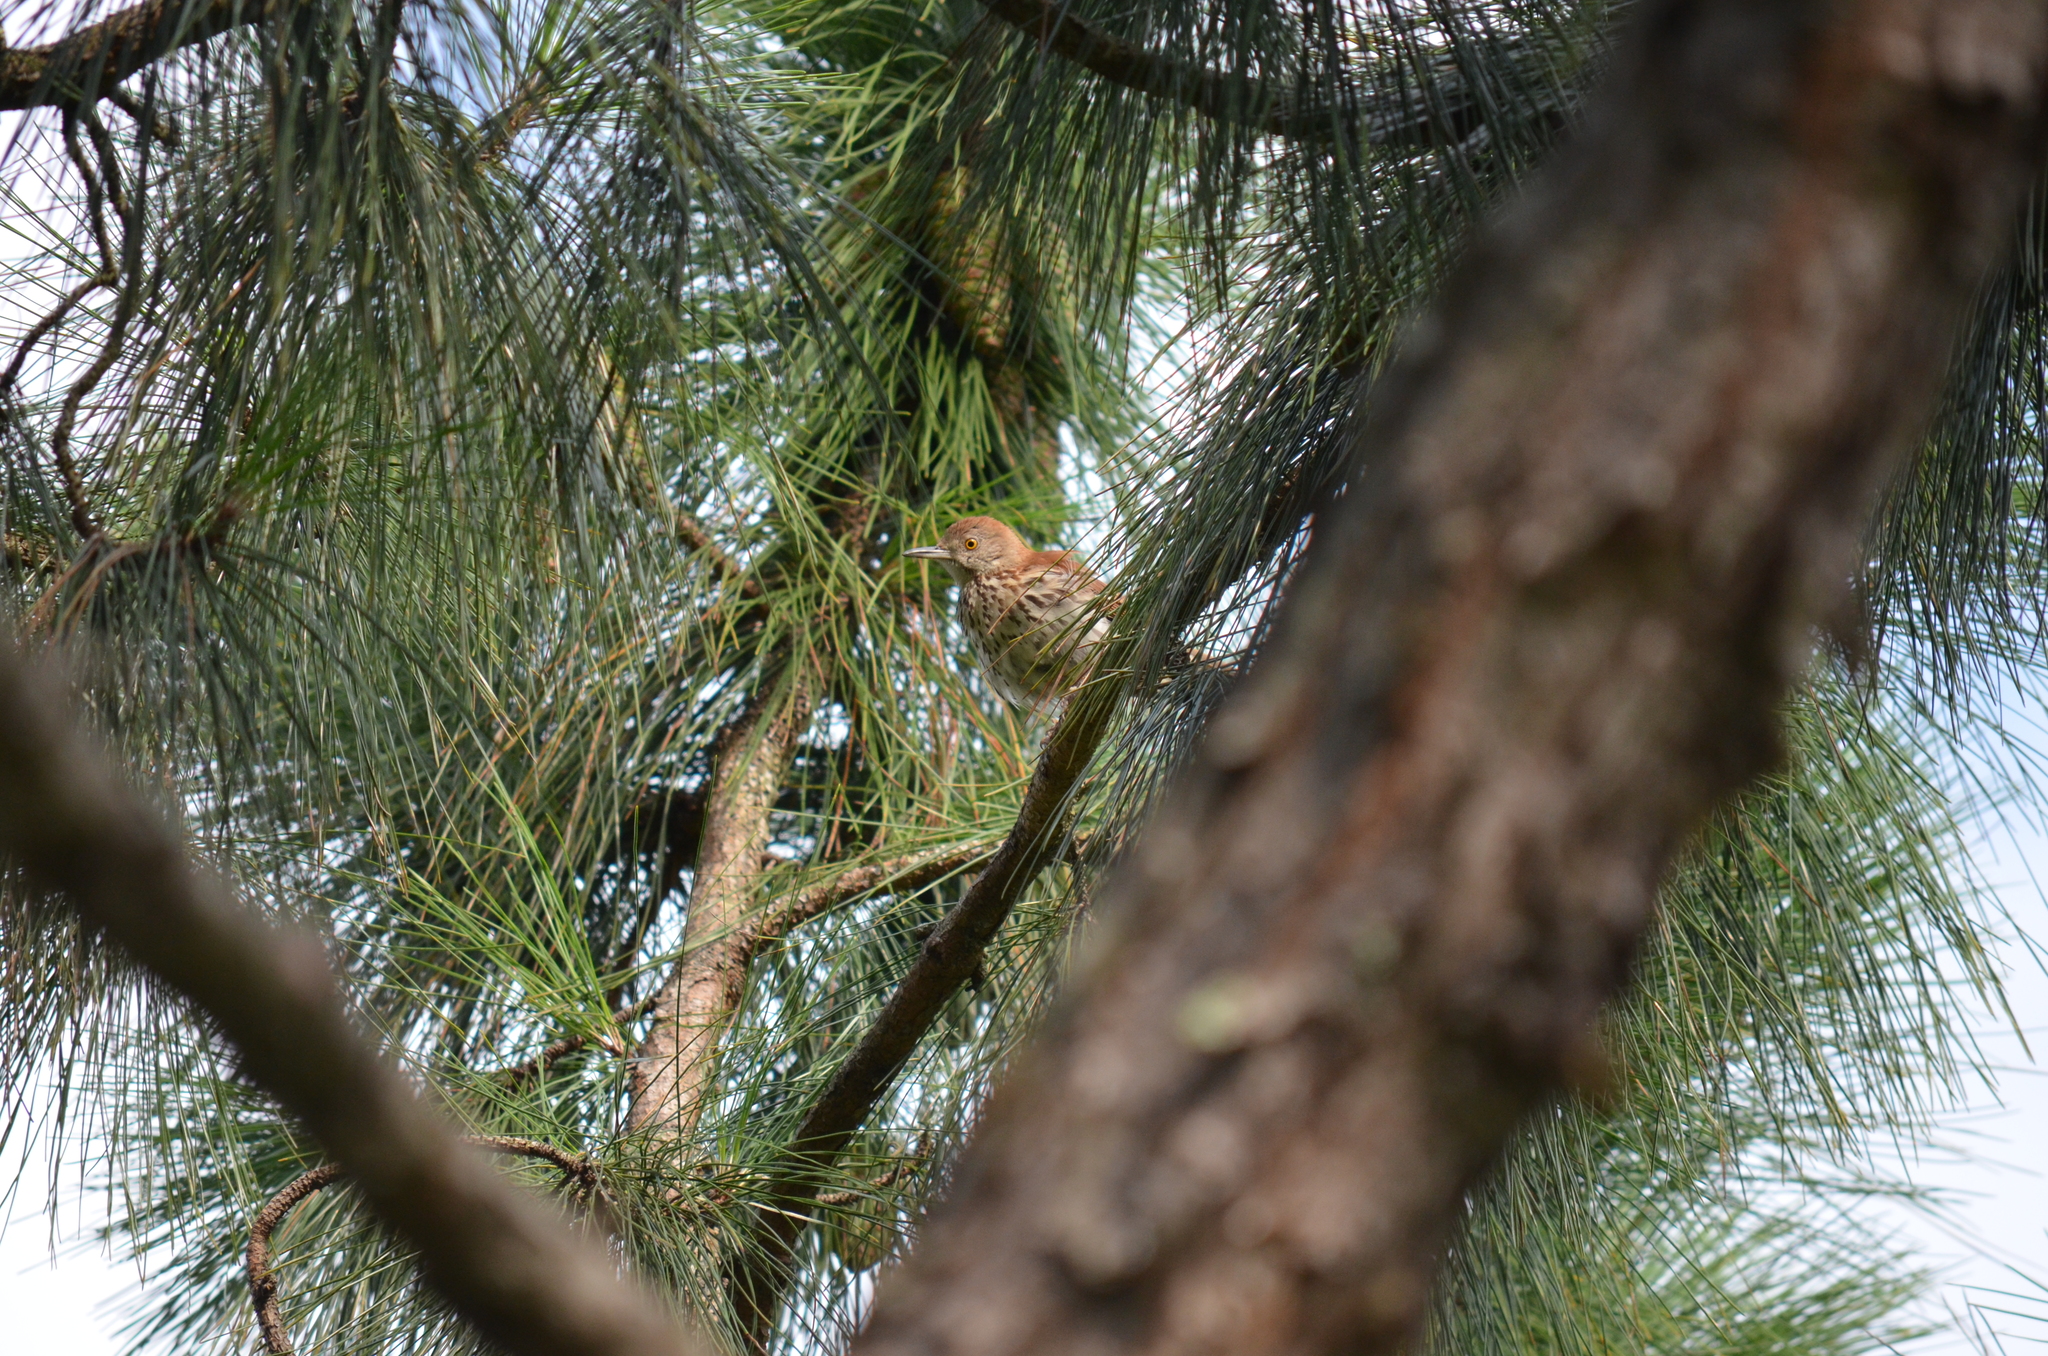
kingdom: Animalia
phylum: Chordata
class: Aves
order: Passeriformes
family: Mimidae
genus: Toxostoma
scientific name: Toxostoma rufum
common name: Brown thrasher
